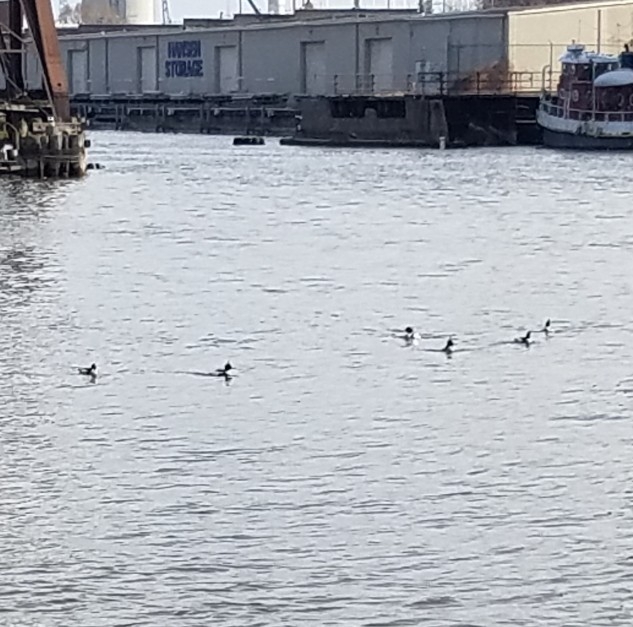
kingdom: Animalia
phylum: Chordata
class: Aves
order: Anseriformes
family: Anatidae
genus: Mergus
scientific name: Mergus serrator
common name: Red-breasted merganser
